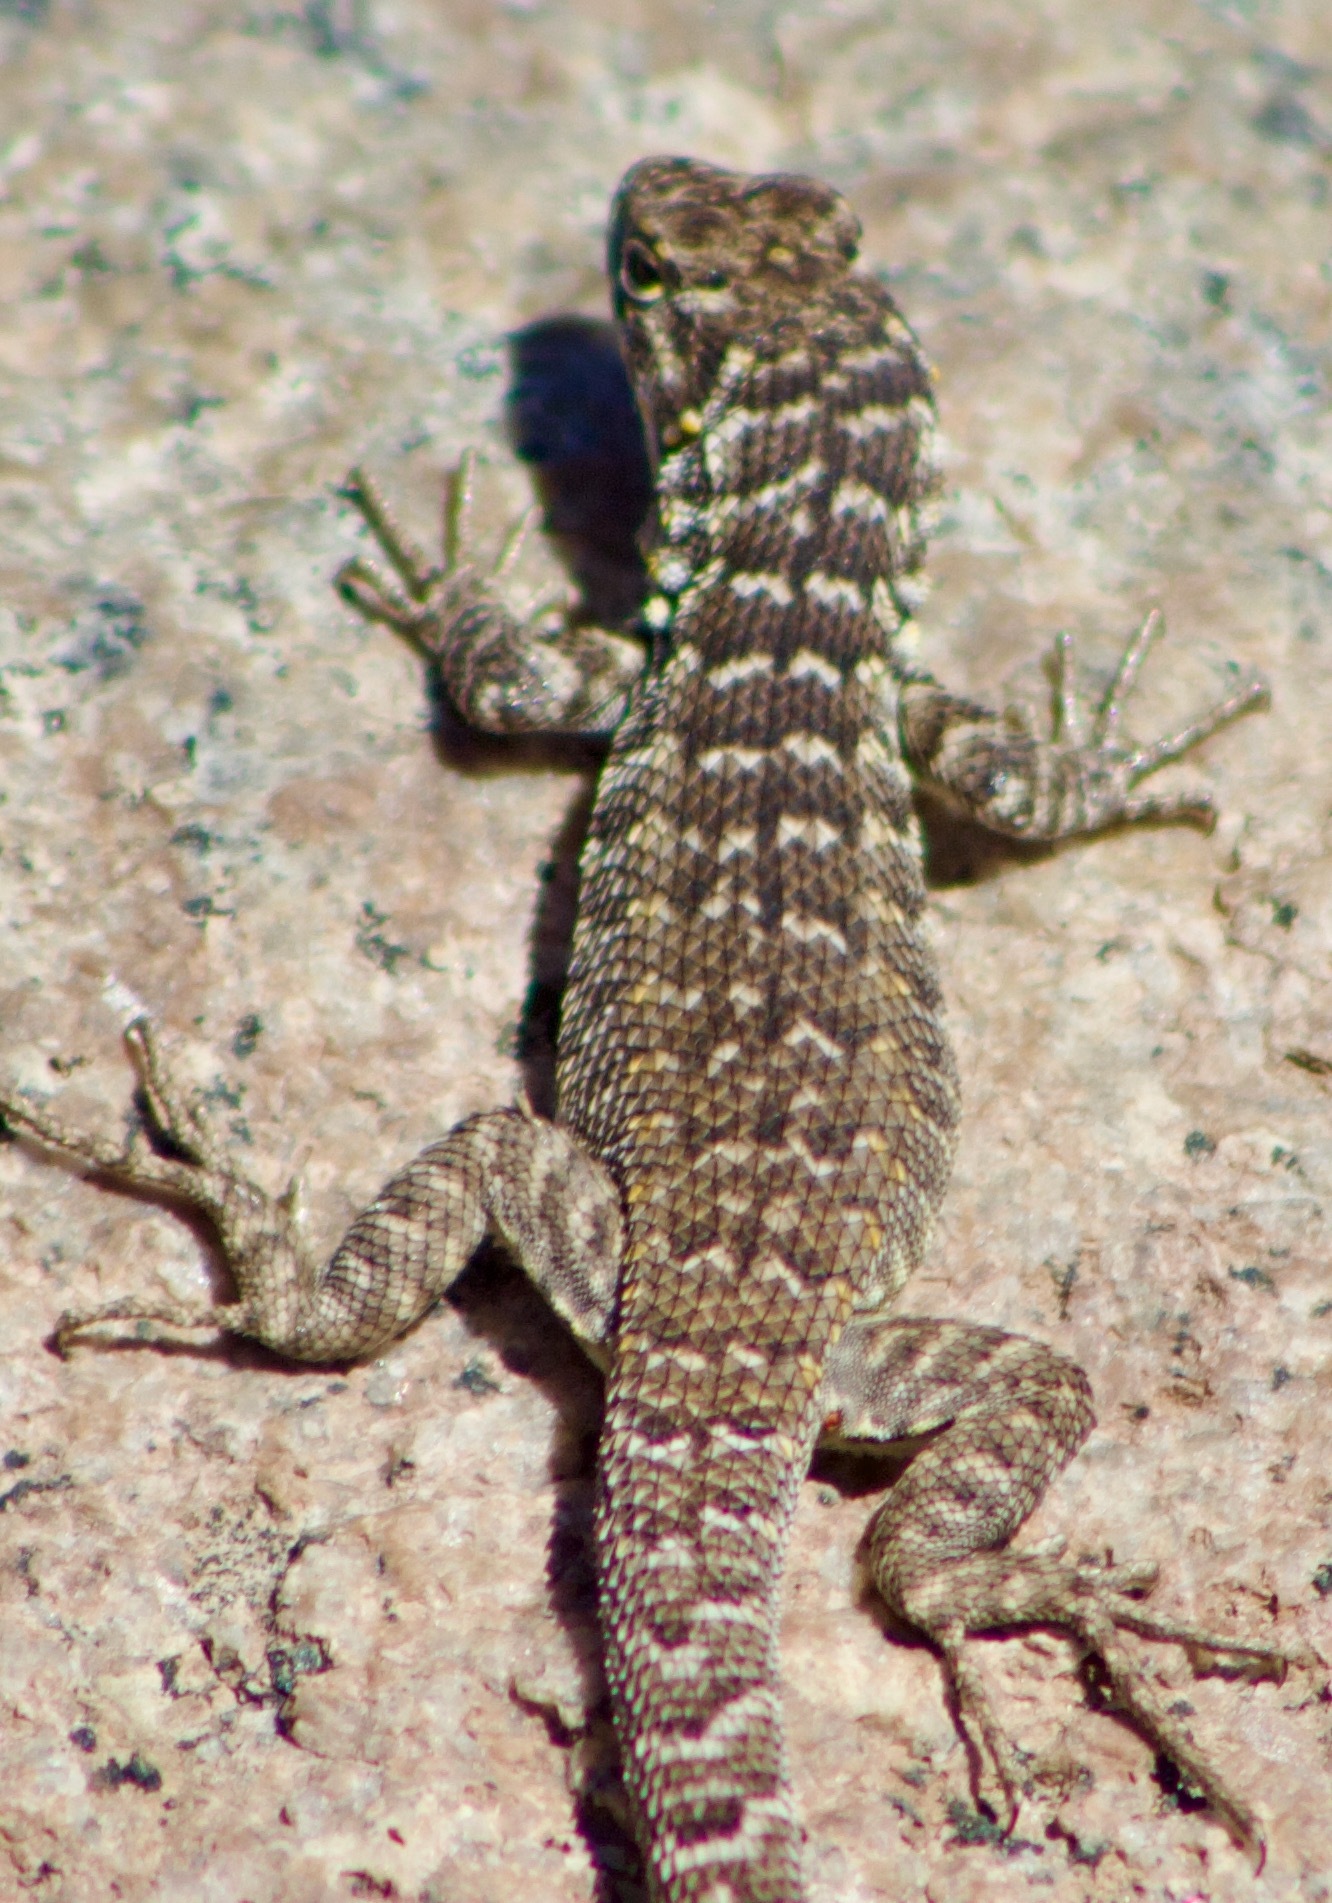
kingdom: Animalia
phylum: Chordata
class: Squamata
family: Liolaemidae
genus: Liolaemus
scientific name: Liolaemus zapallarensis
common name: Zapallaren tree iguana
